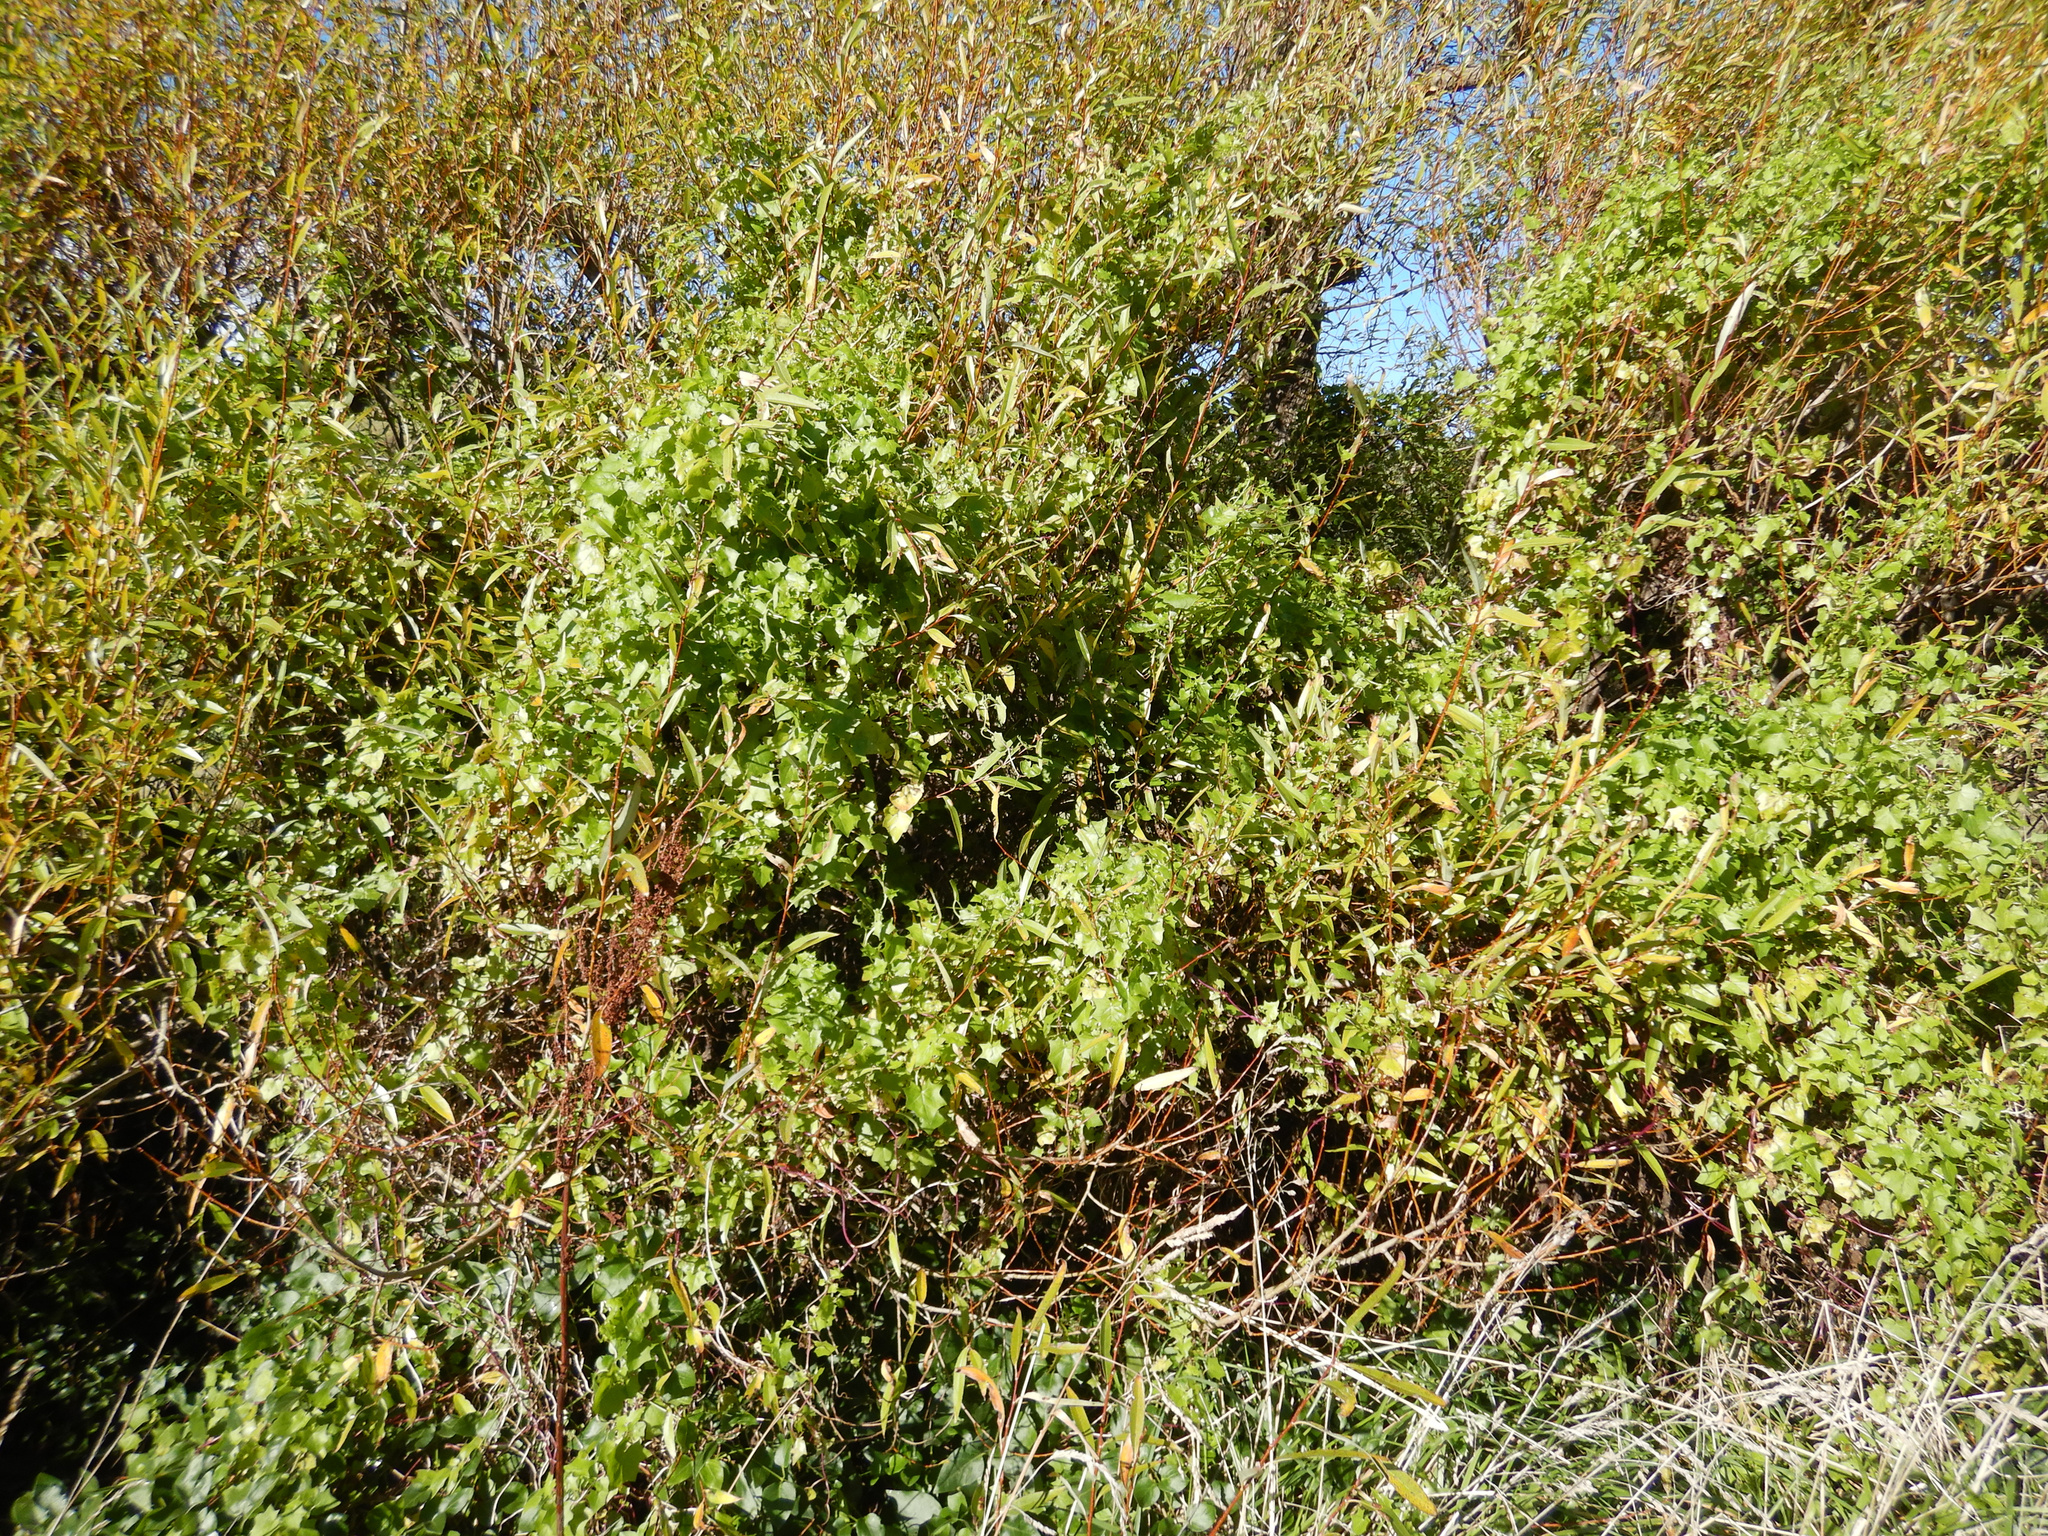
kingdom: Plantae
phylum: Tracheophyta
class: Magnoliopsida
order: Malpighiales
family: Salicaceae
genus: Salix
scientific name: Salix fragilis
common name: Crack willow
